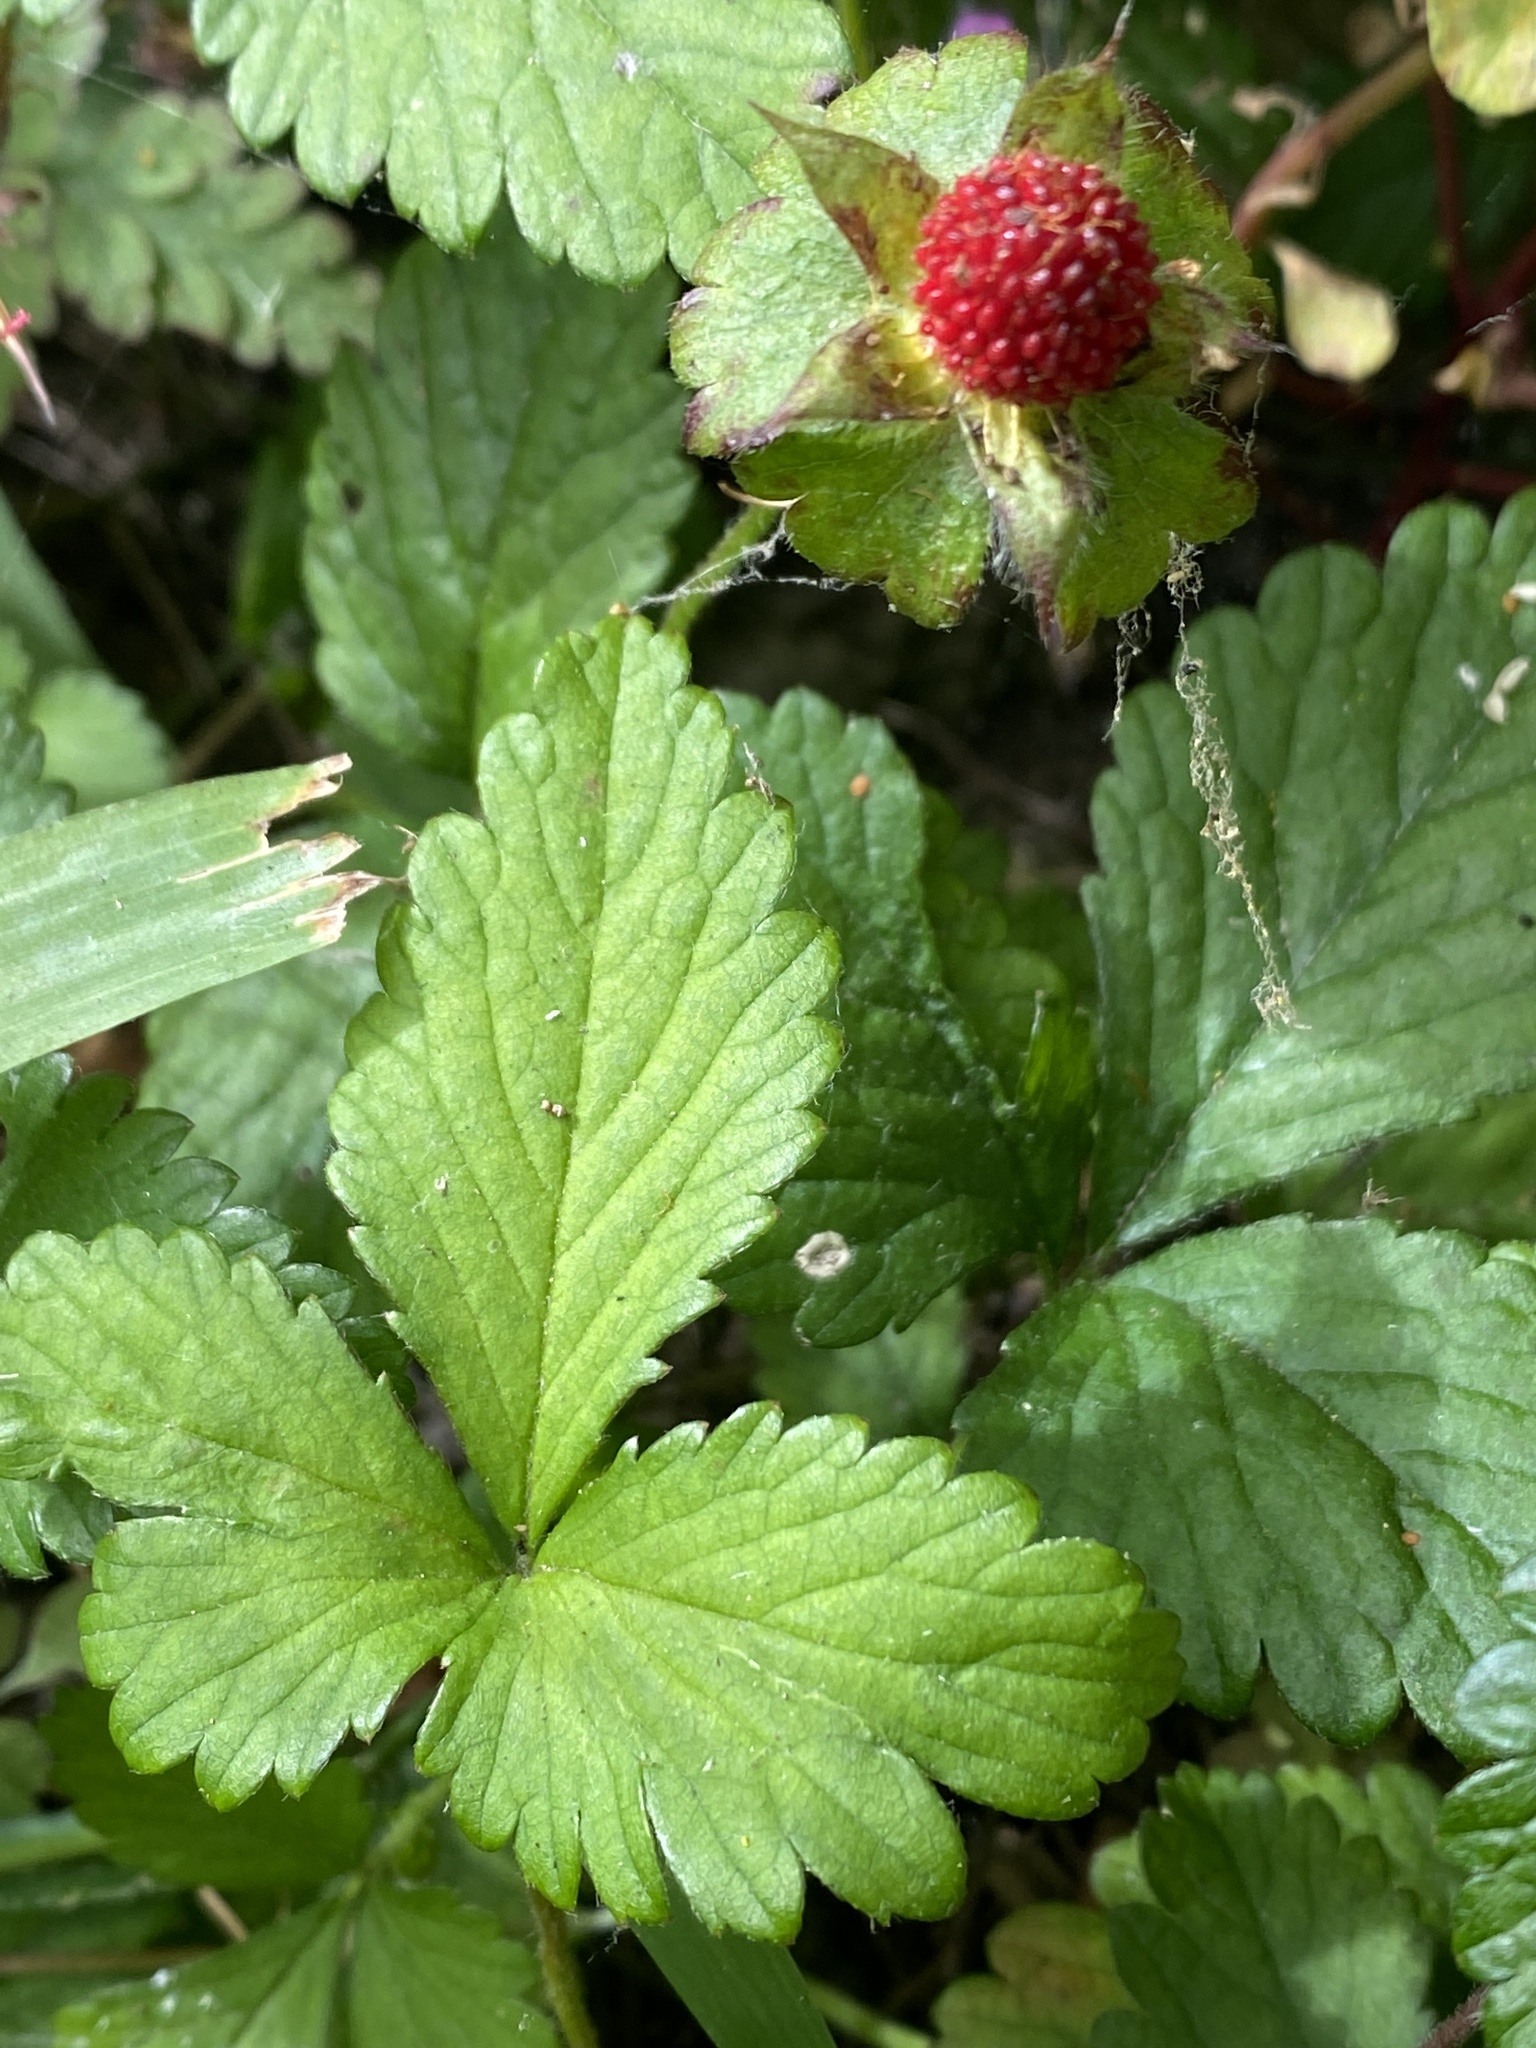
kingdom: Plantae
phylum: Tracheophyta
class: Magnoliopsida
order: Rosales
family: Rosaceae
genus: Potentilla
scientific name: Potentilla indica
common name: Yellow-flowered strawberry
